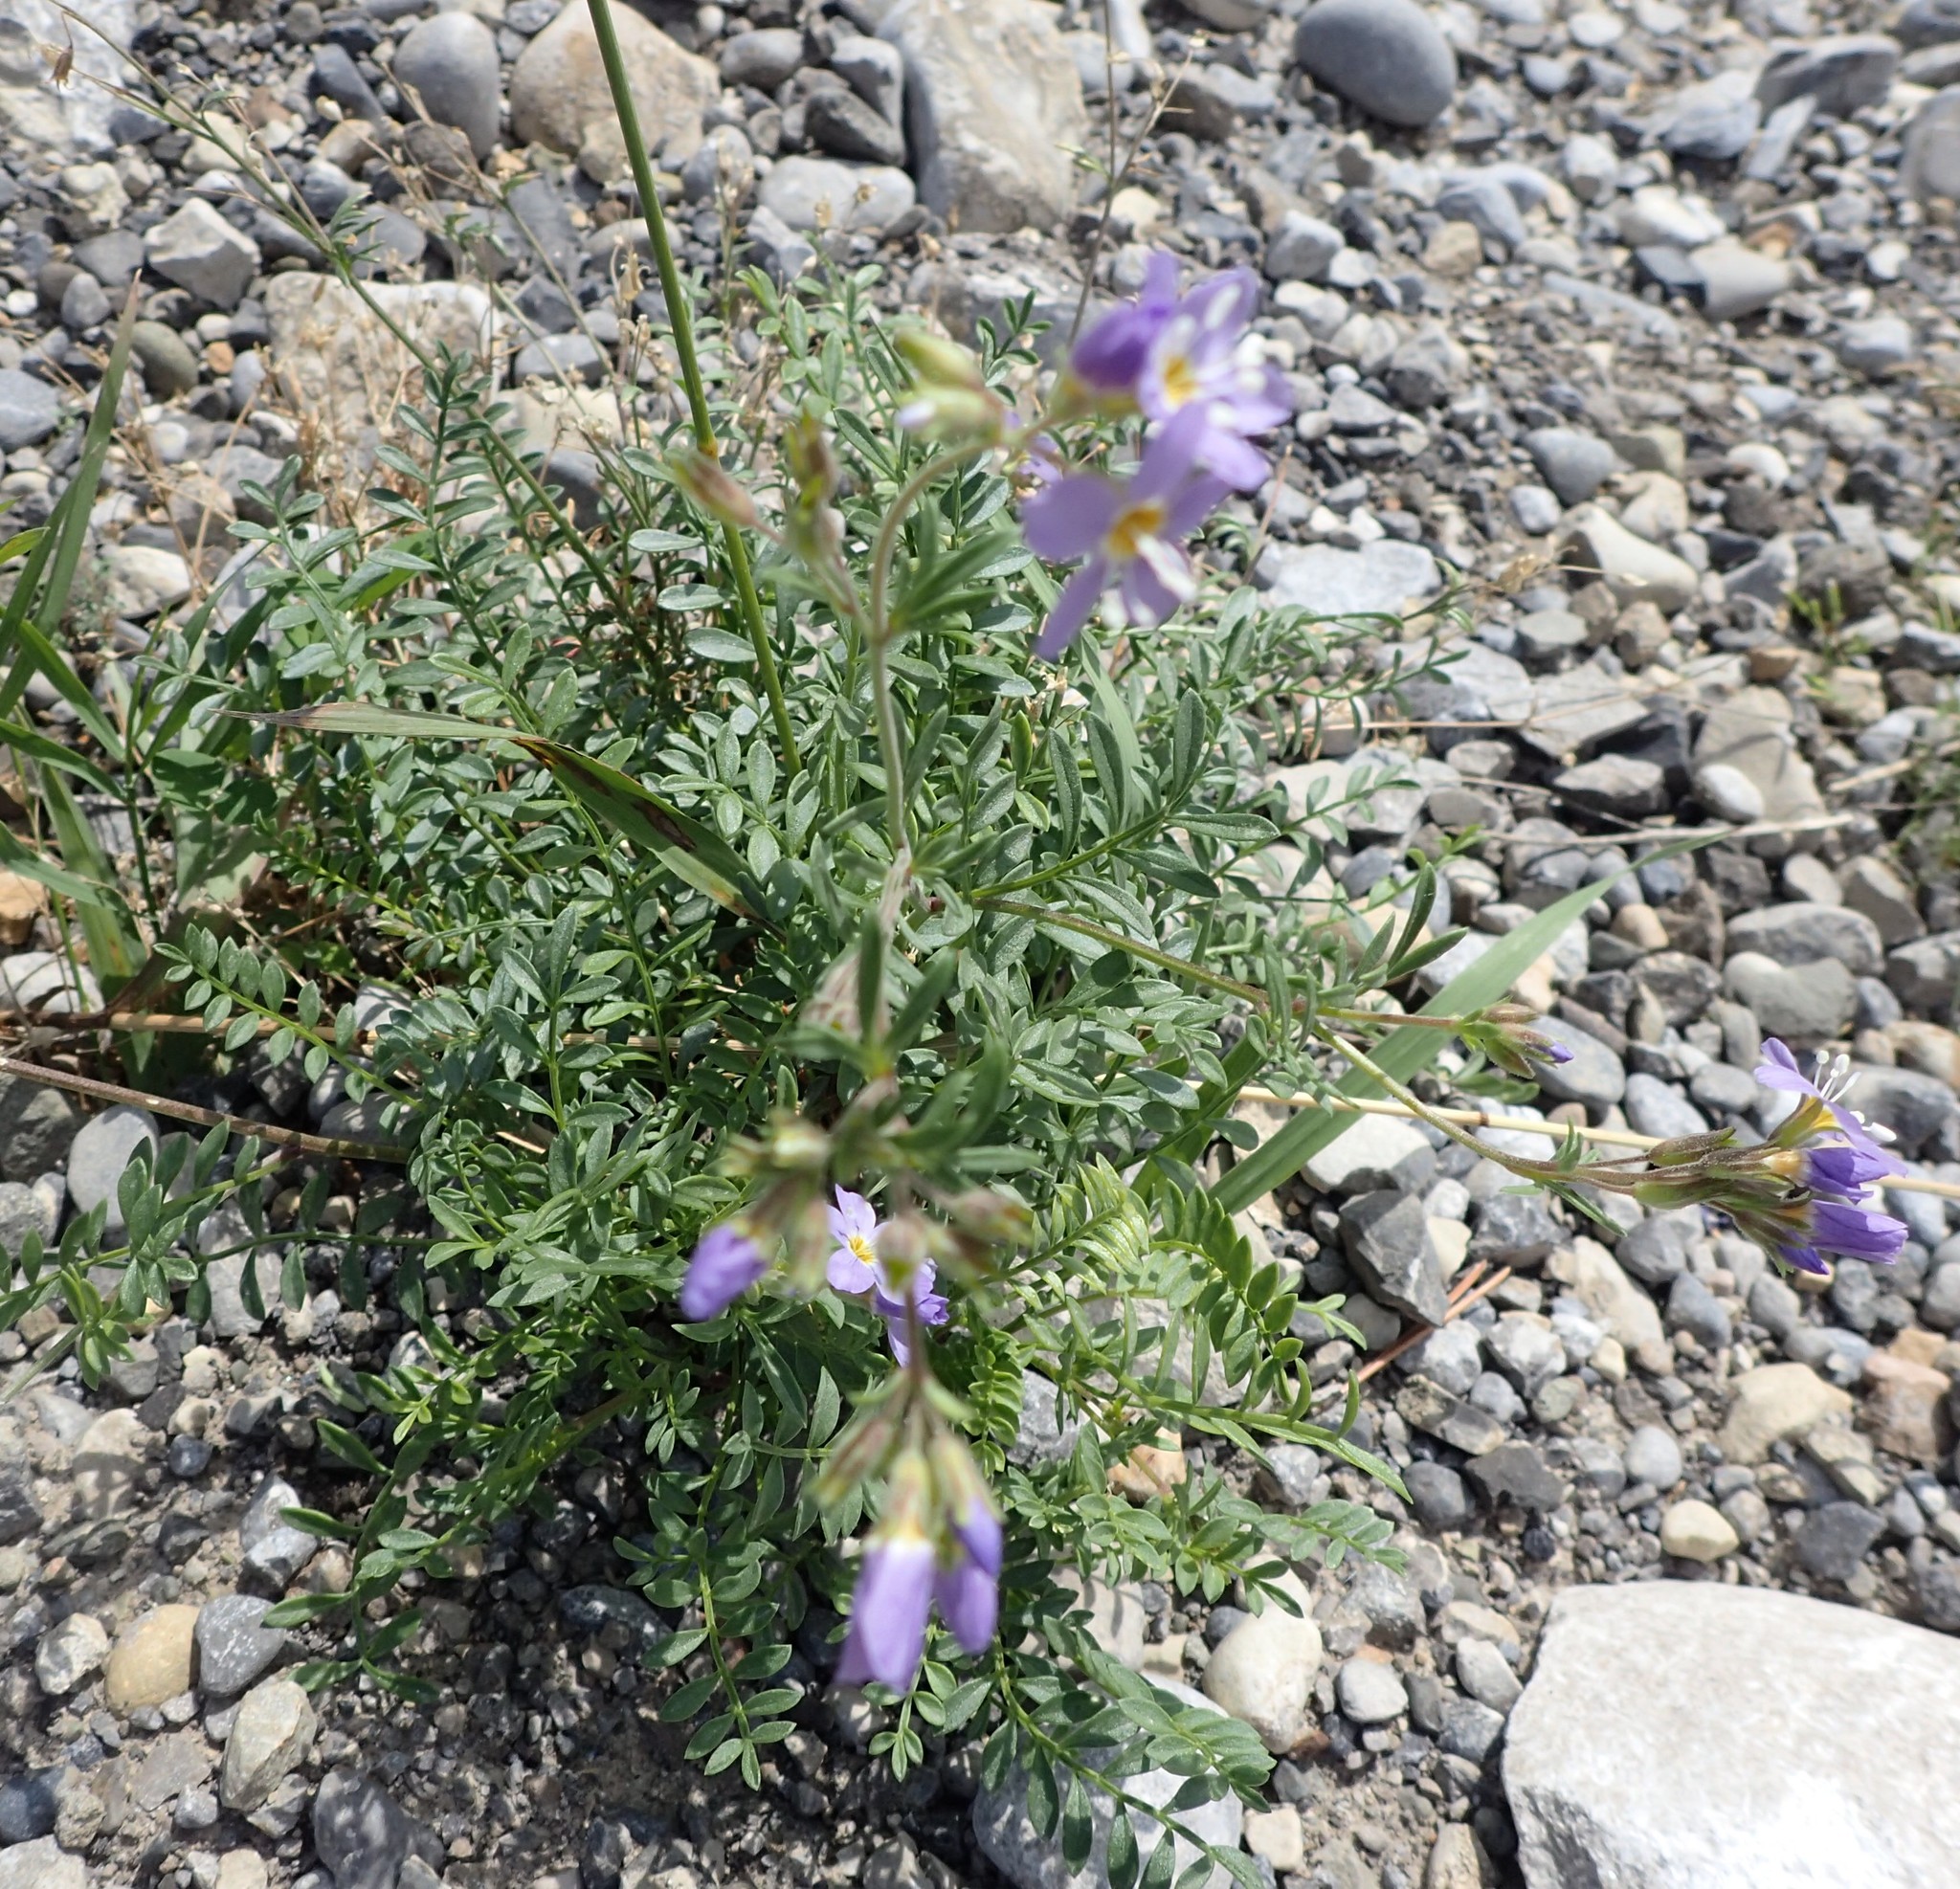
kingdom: Plantae
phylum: Tracheophyta
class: Magnoliopsida
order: Ericales
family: Polemoniaceae
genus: Polemonium
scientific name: Polemonium pulcherrimum
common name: Short jacob's-ladder
